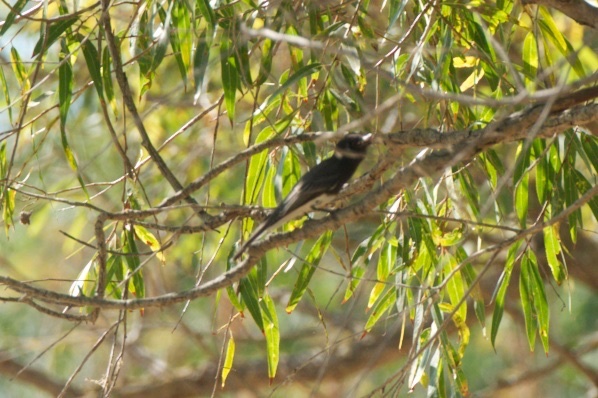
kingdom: Animalia
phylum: Chordata
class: Aves
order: Passeriformes
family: Tyrannidae
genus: Sayornis
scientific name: Sayornis nigricans
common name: Black phoebe
